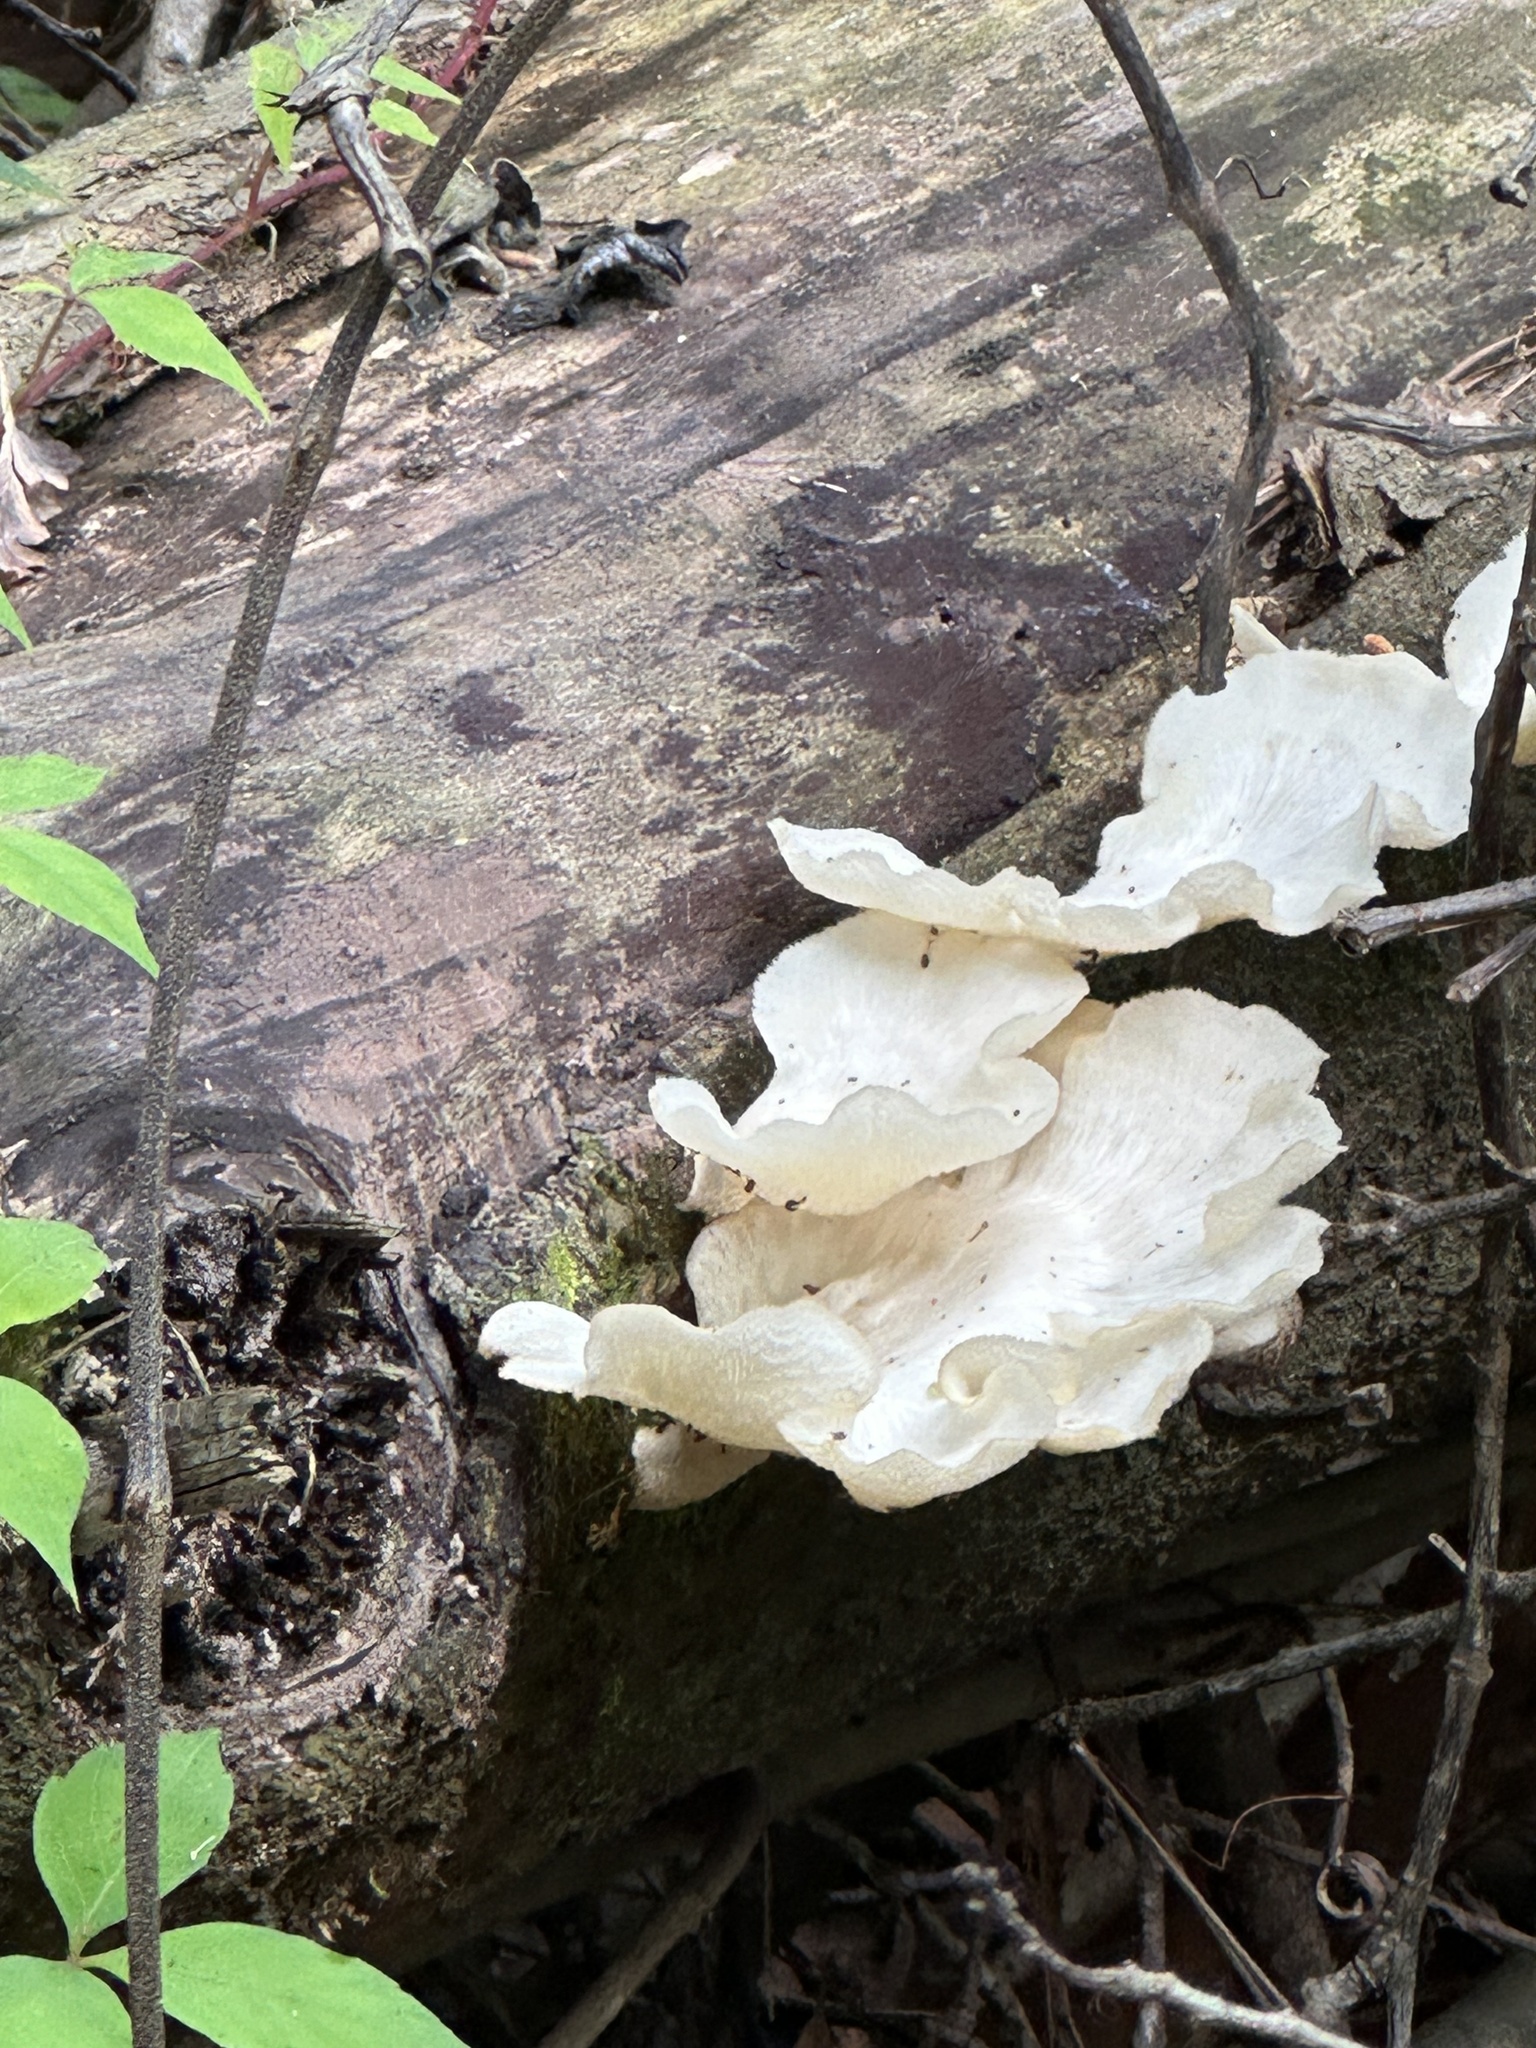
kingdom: Fungi
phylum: Basidiomycota
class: Agaricomycetes
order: Polyporales
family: Polyporaceae
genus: Favolus
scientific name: Favolus tenuiculus
